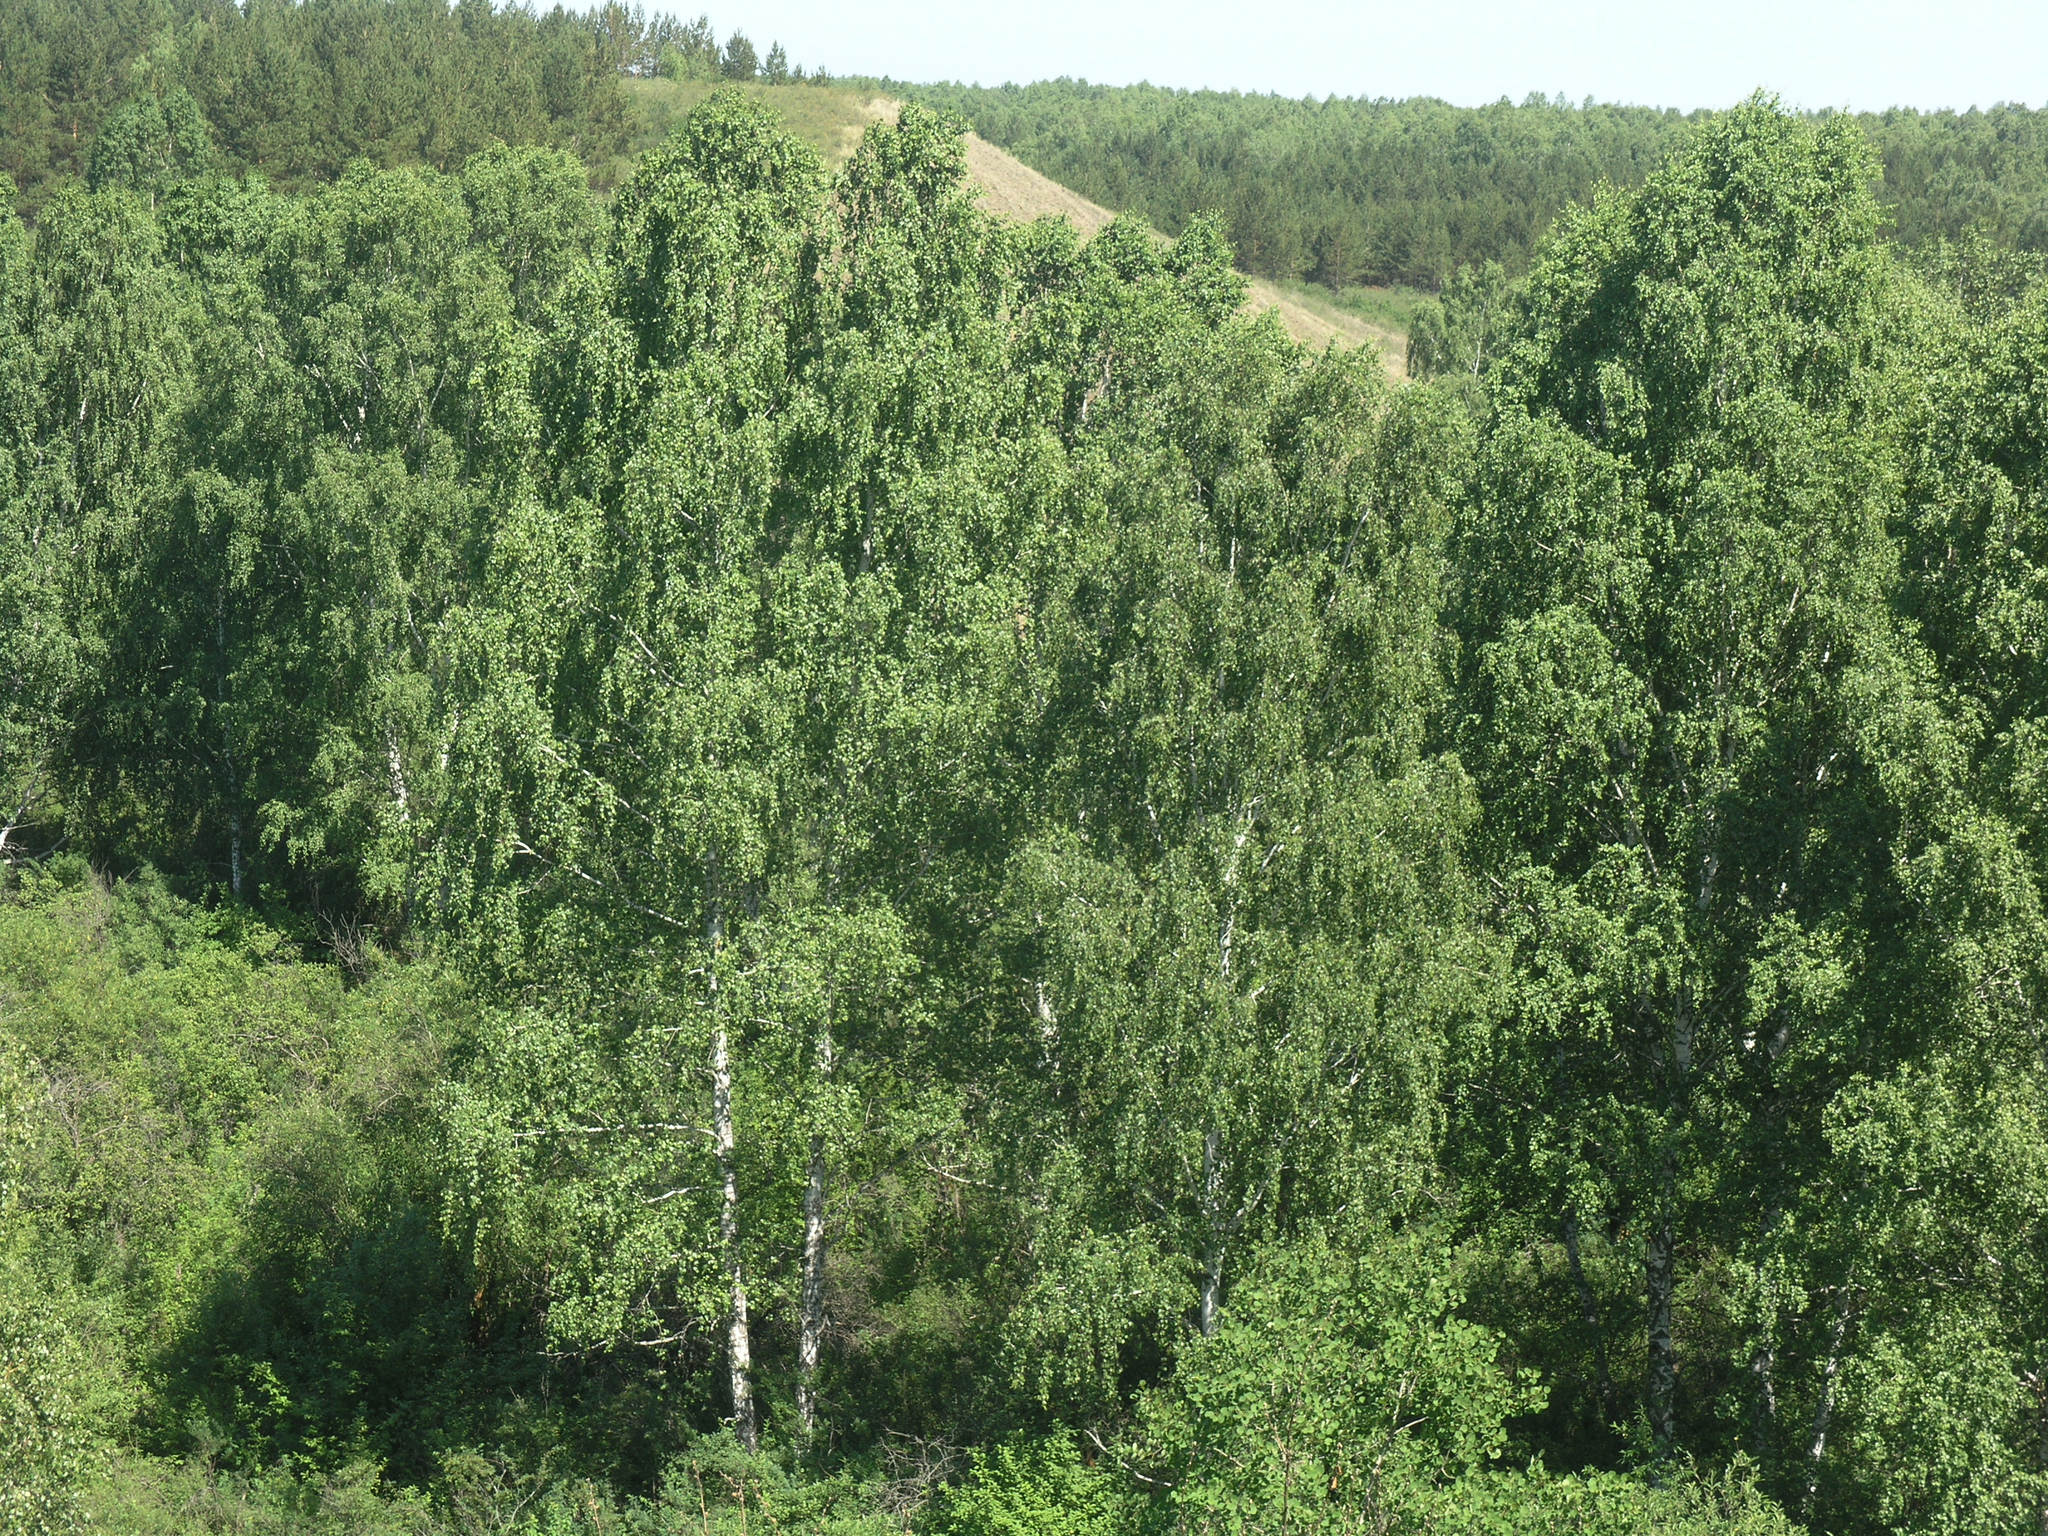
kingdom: Plantae
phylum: Tracheophyta
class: Magnoliopsida
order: Fagales
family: Betulaceae
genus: Betula
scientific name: Betula pendula
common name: Silver birch
